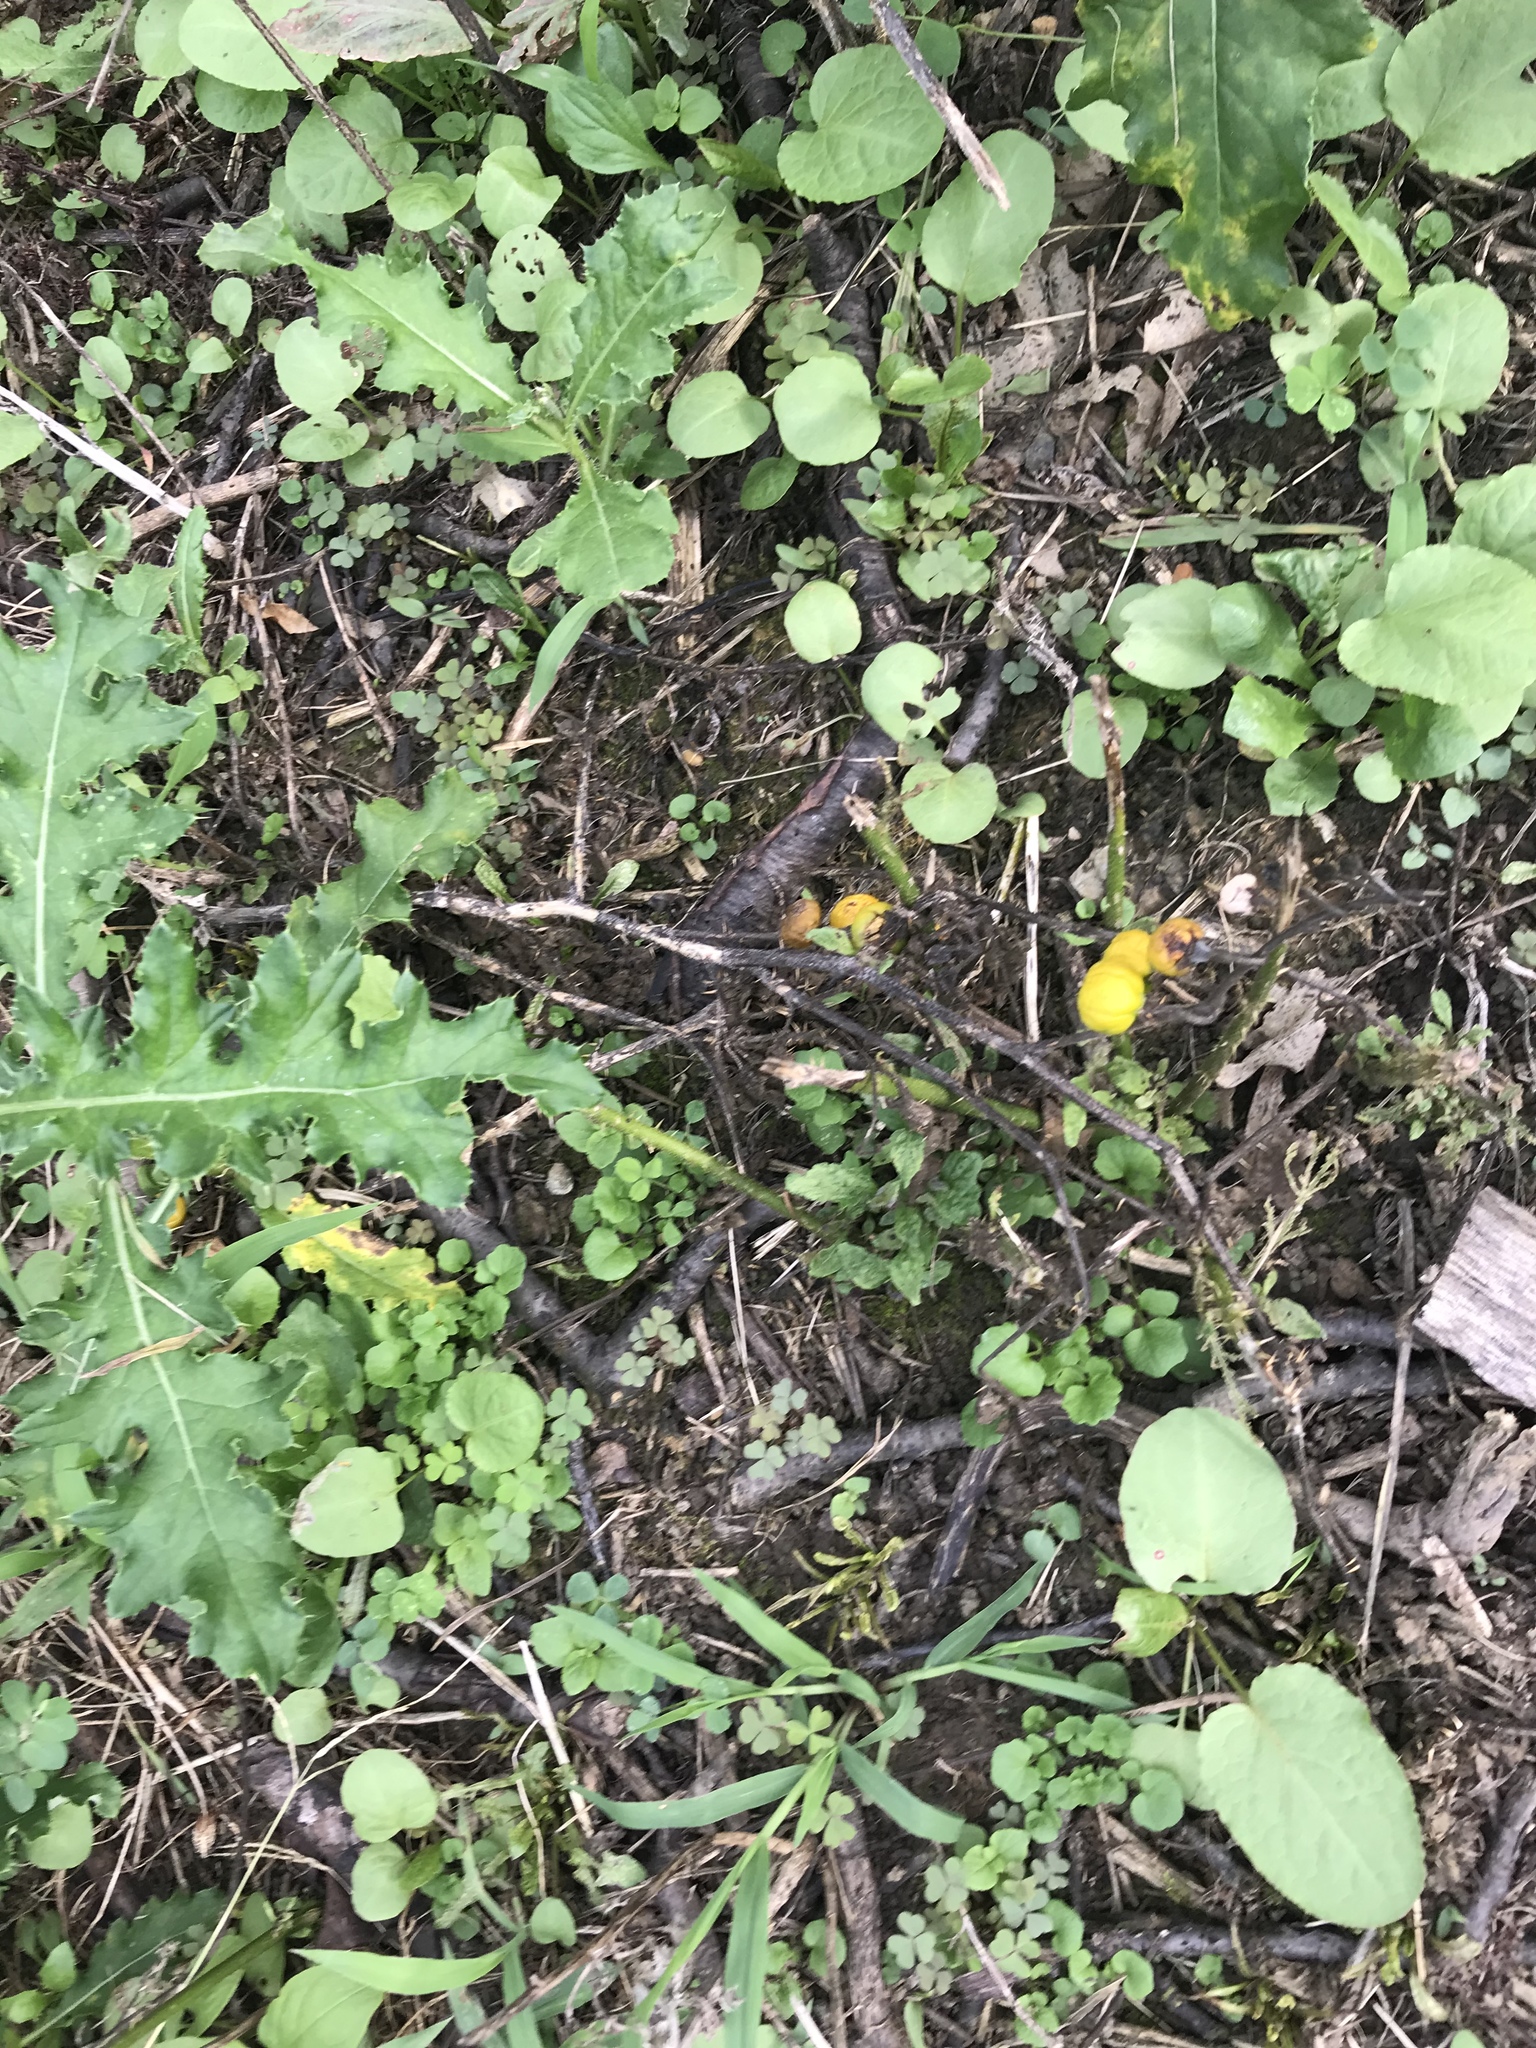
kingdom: Plantae
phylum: Tracheophyta
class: Magnoliopsida
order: Solanales
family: Solanaceae
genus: Solanum
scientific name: Solanum carolinense
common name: Horse-nettle
